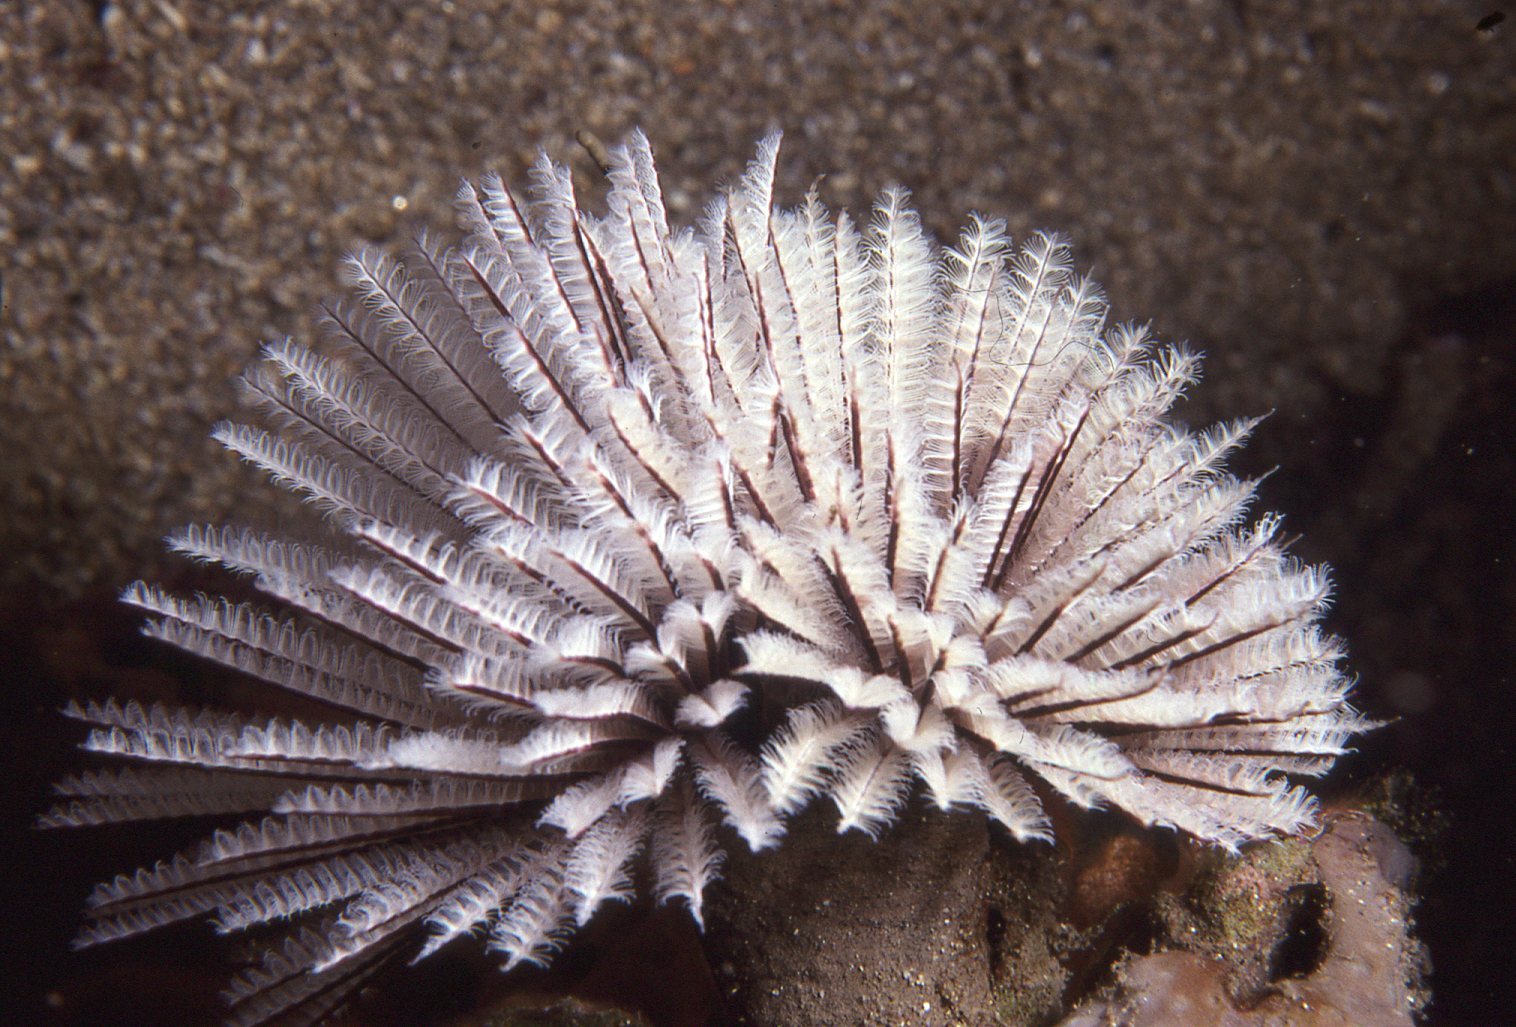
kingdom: Animalia
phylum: Annelida
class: Polychaeta
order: Sabellida
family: Sabellidae
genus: Sabellastarte
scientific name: Sabellastarte australiensis
